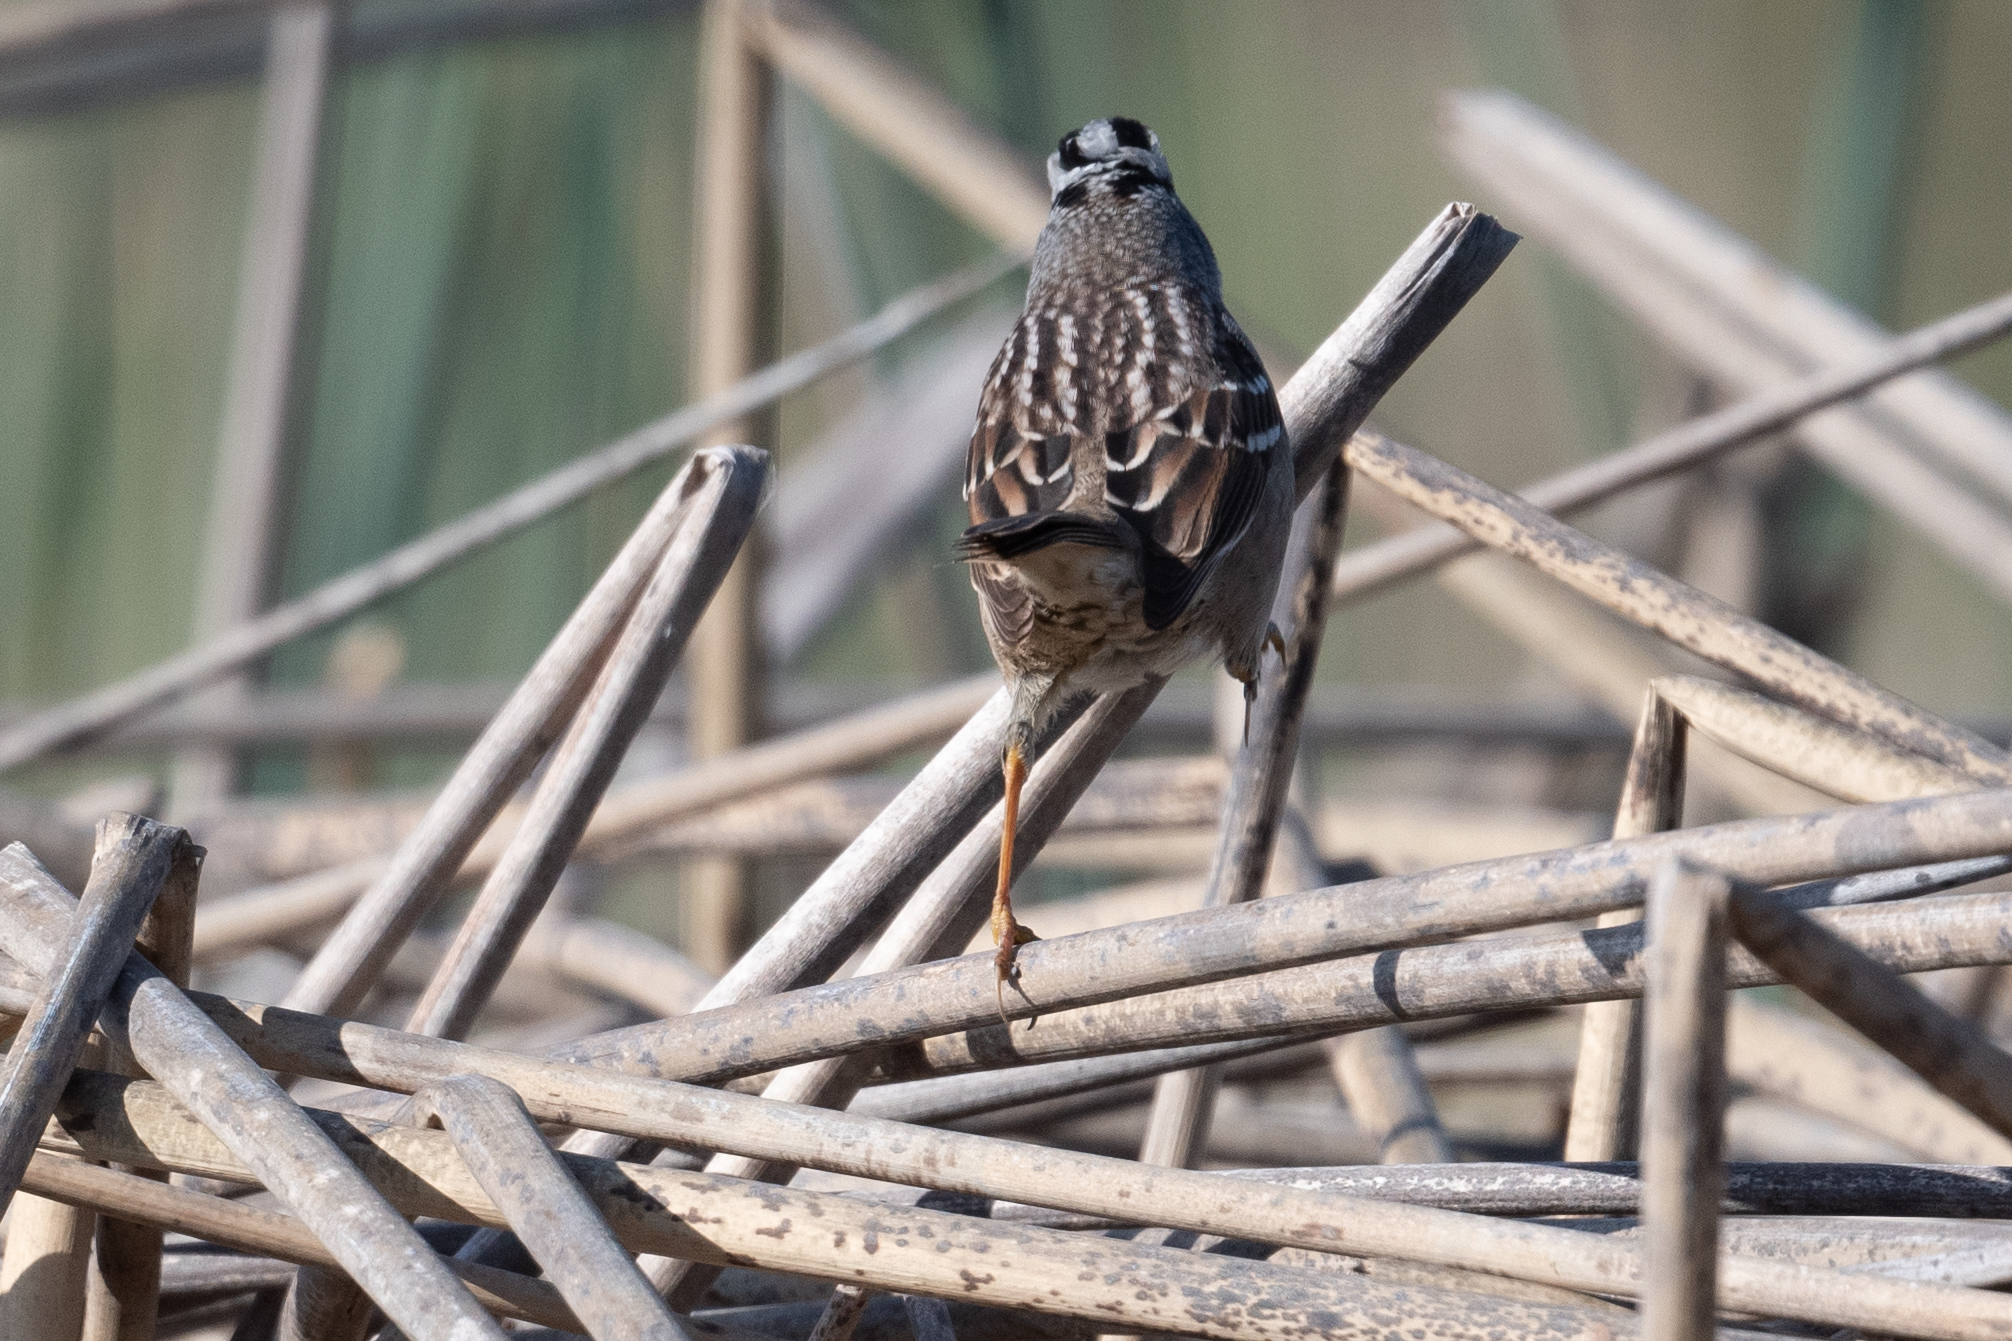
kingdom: Animalia
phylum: Chordata
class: Aves
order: Passeriformes
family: Passerellidae
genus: Zonotrichia
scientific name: Zonotrichia leucophrys
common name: White-crowned sparrow
